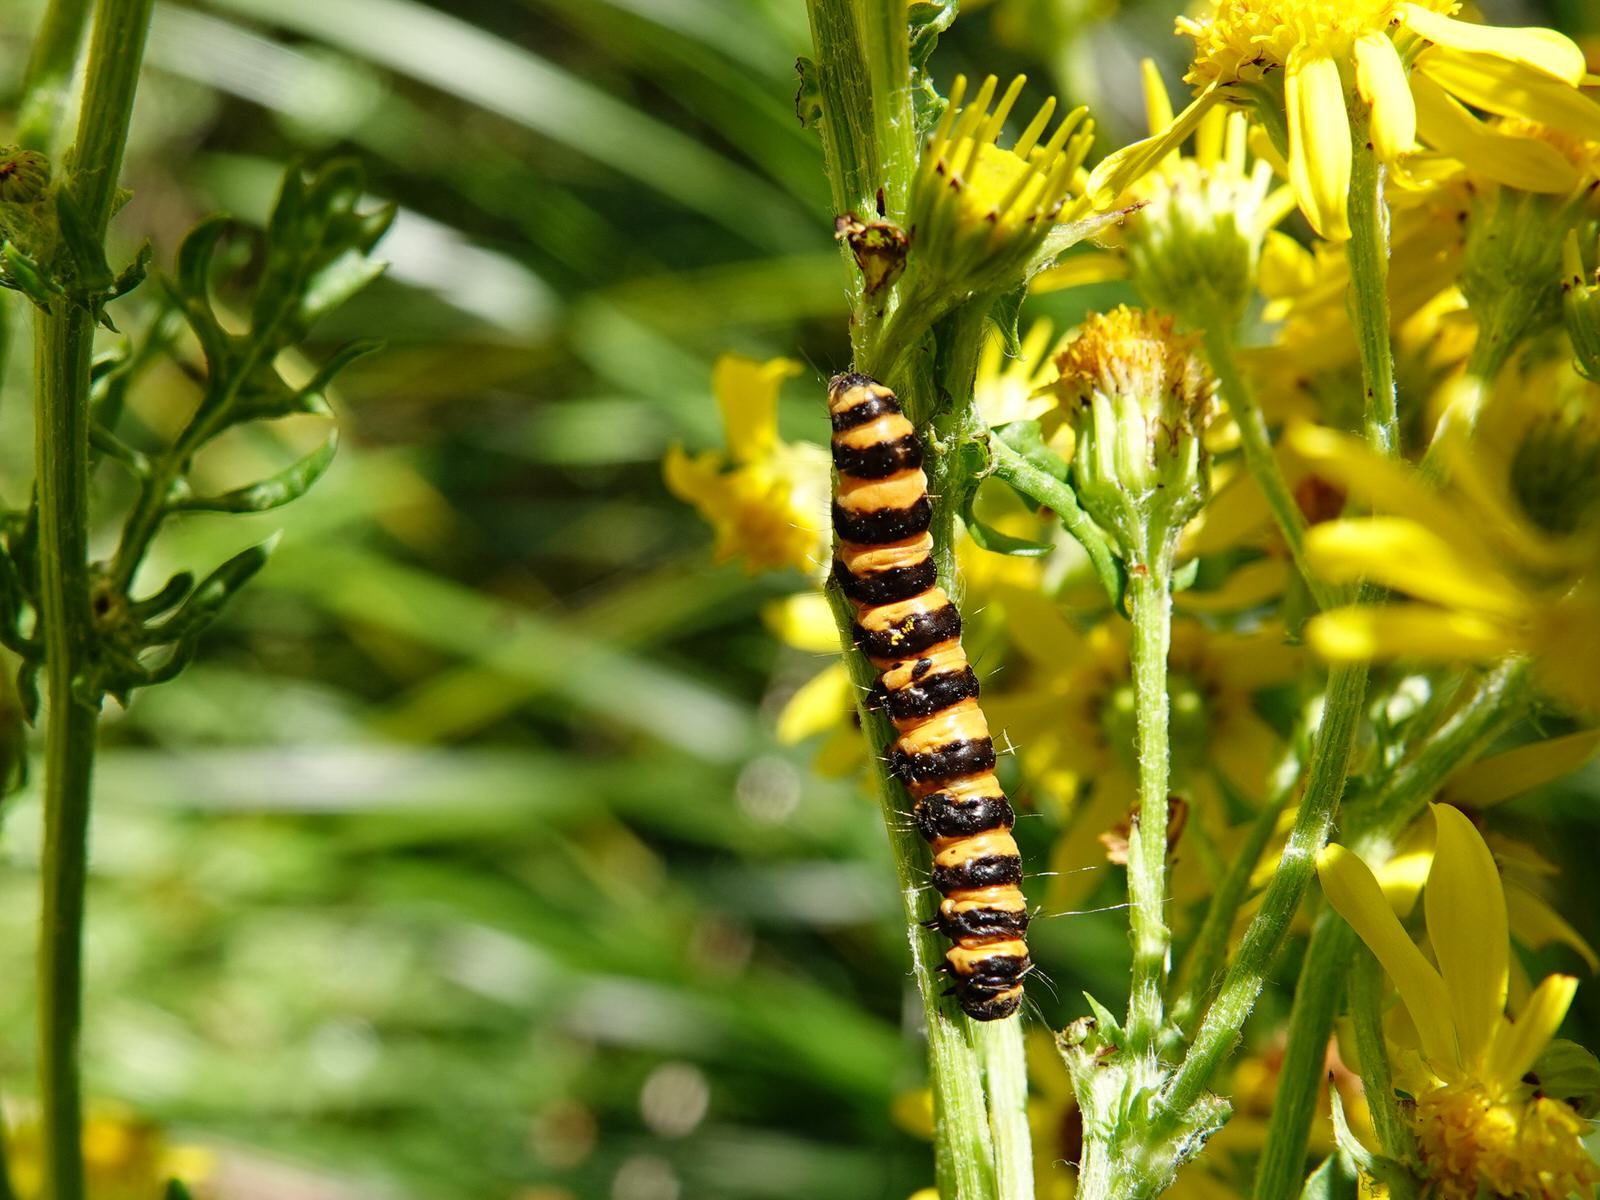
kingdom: Animalia
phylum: Arthropoda
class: Insecta
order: Lepidoptera
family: Erebidae
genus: Tyria
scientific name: Tyria jacobaeae
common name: Cinnabar
